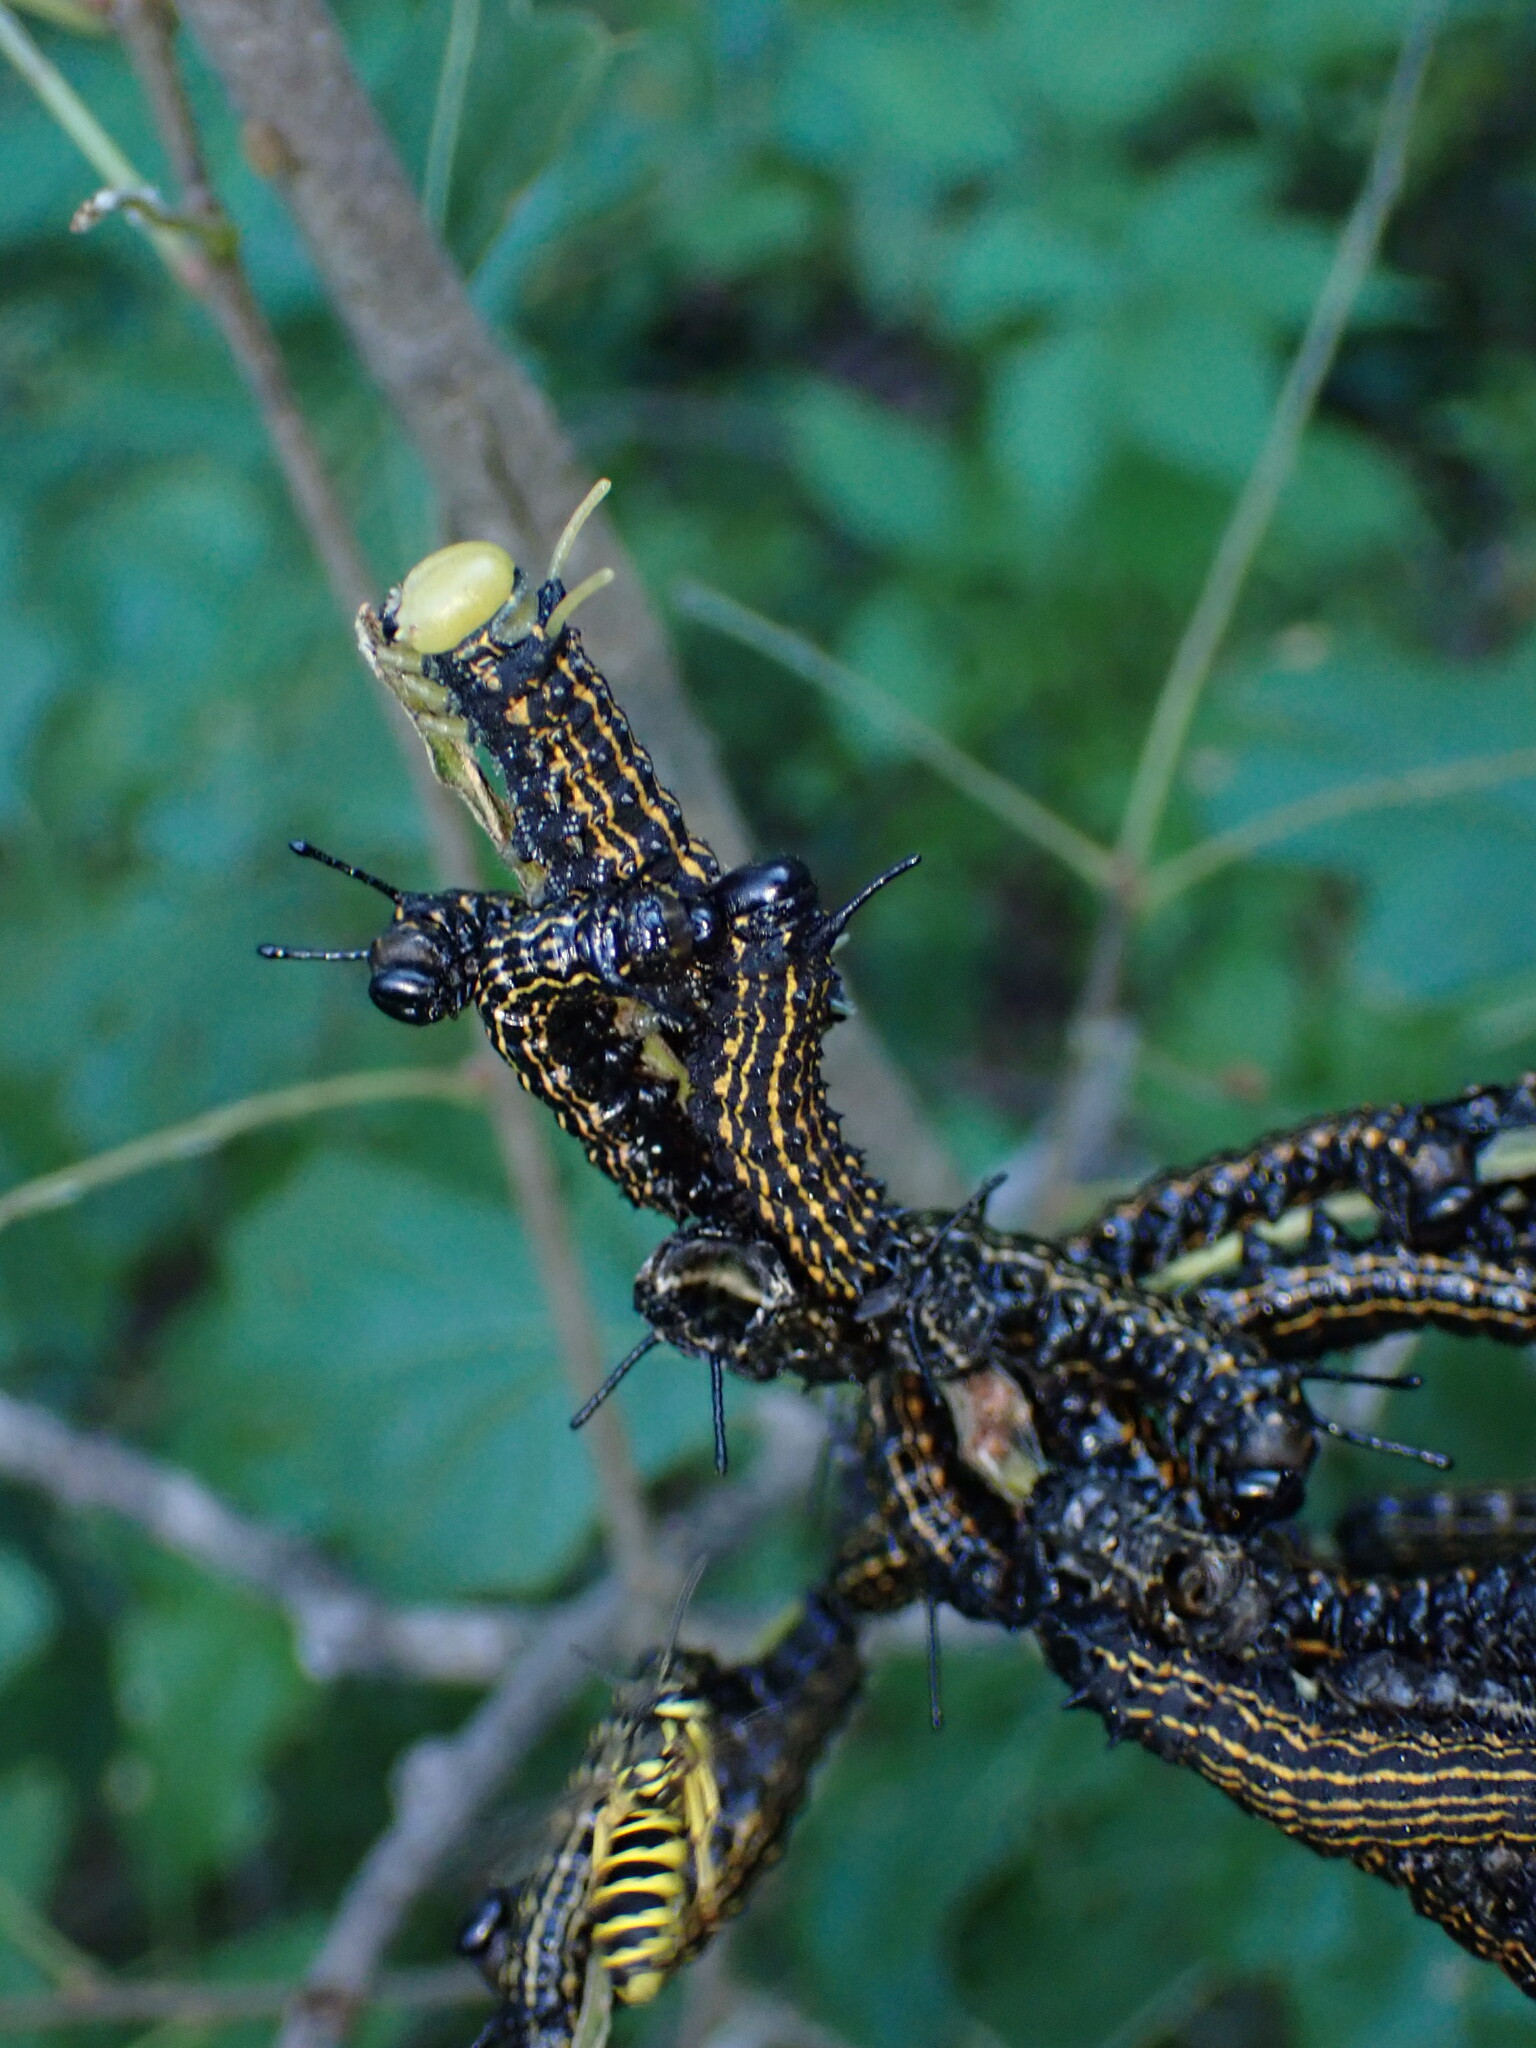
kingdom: Animalia
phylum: Arthropoda
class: Insecta
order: Lepidoptera
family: Saturniidae
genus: Anisota
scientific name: Anisota senatoria
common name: Orange-striped oakworm moth
